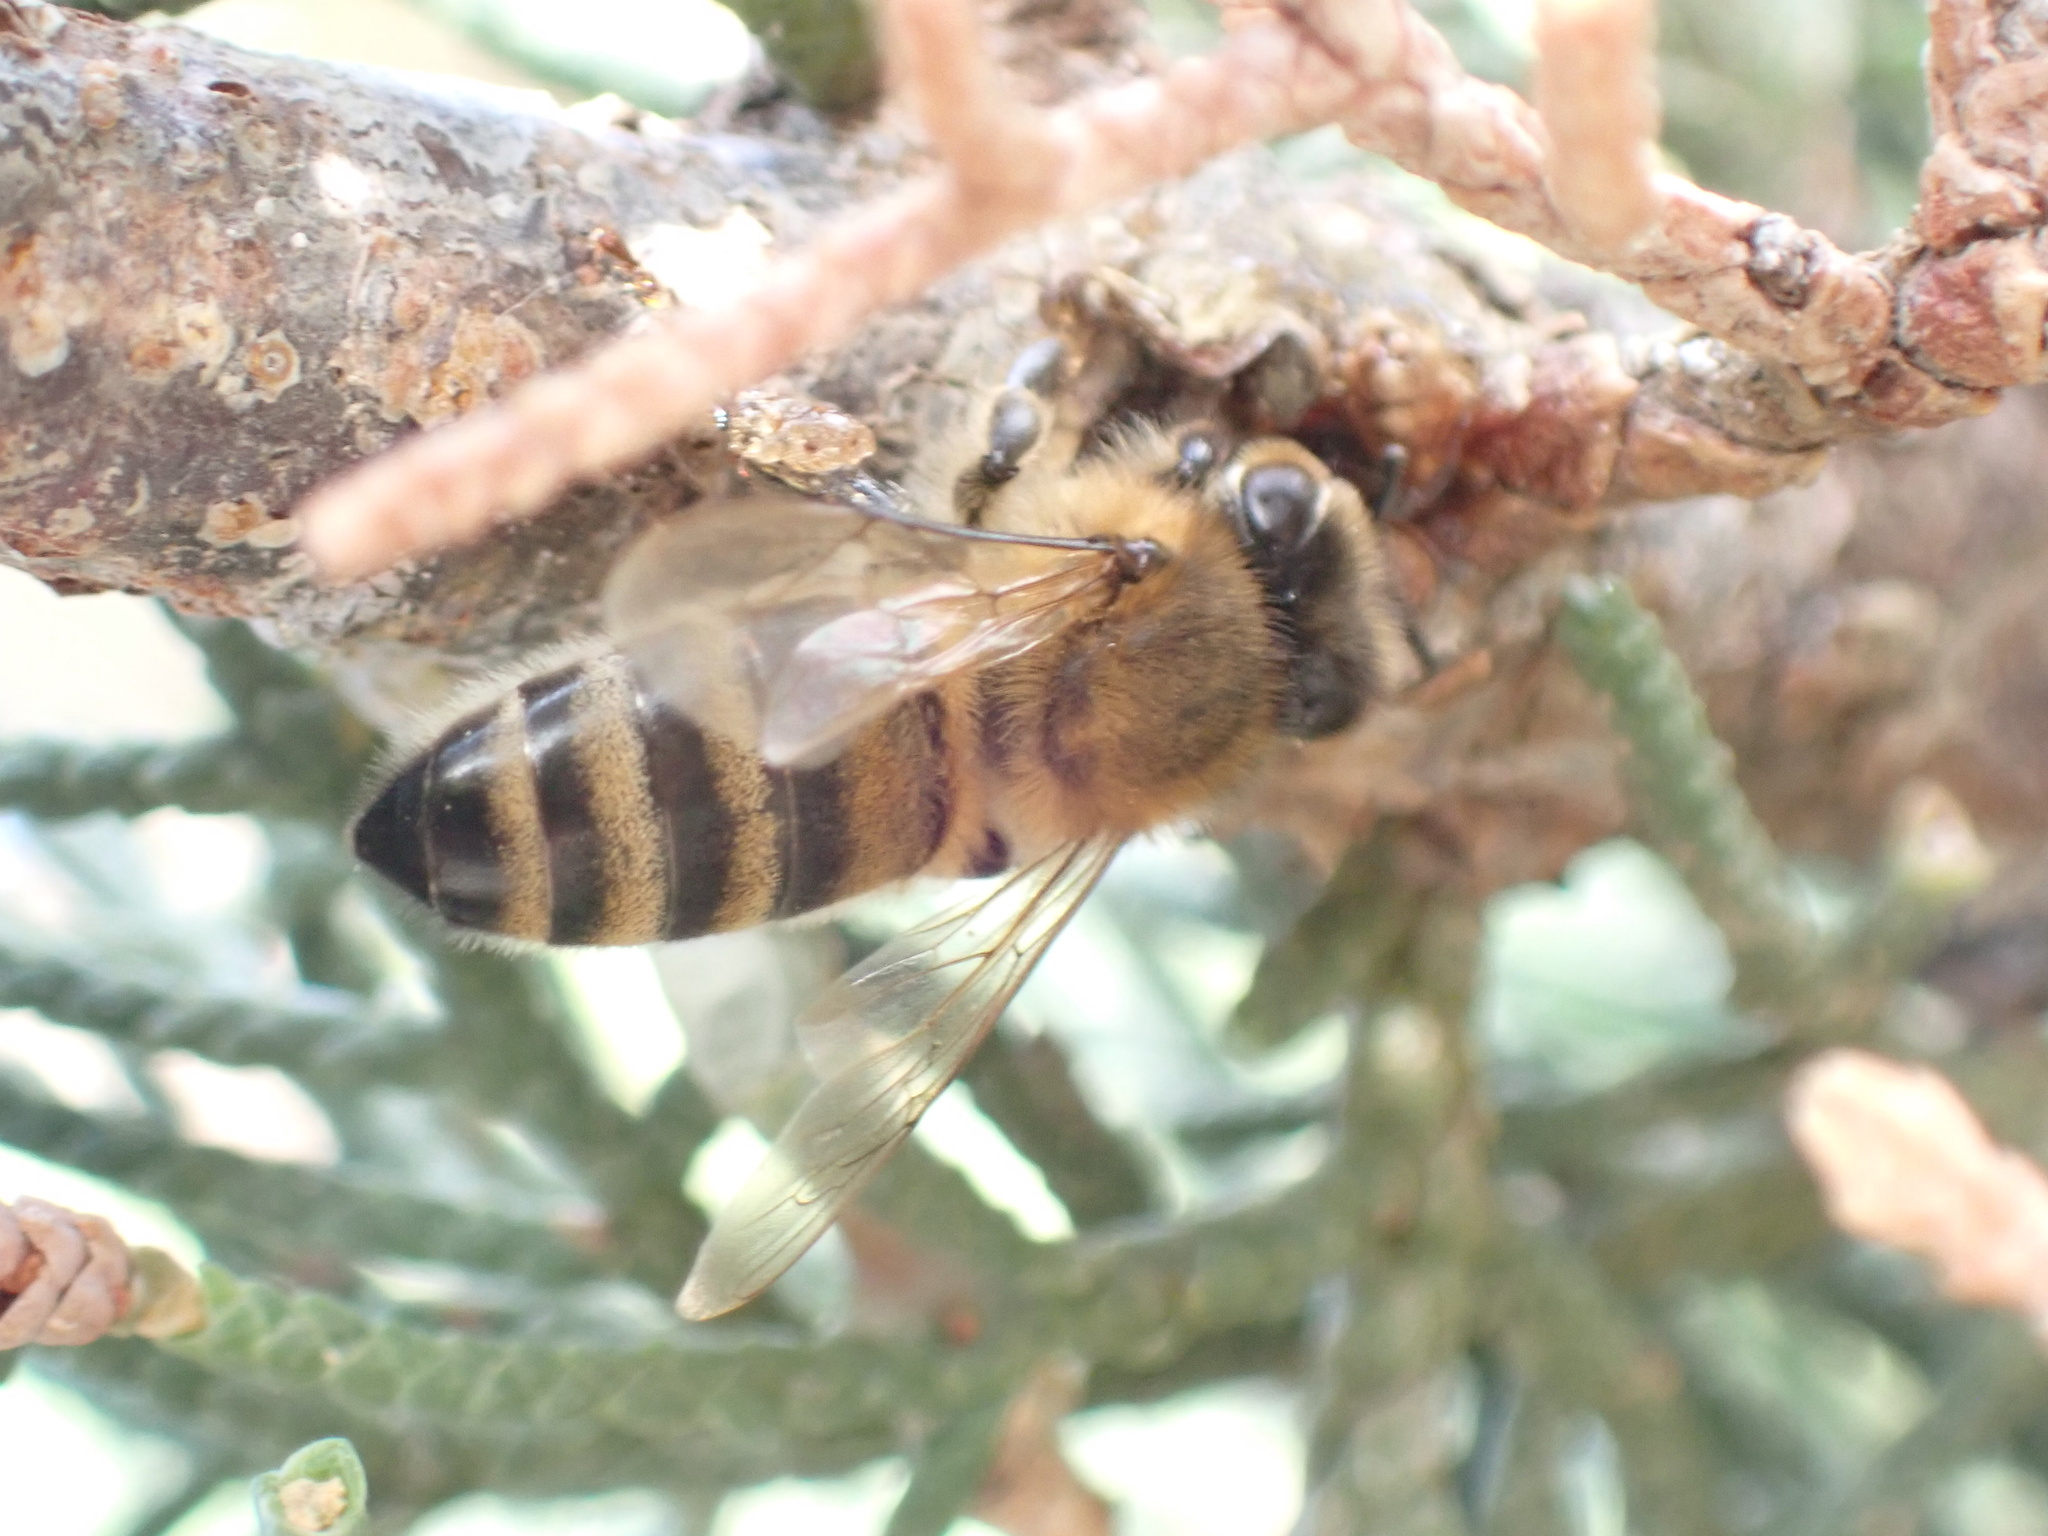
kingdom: Animalia
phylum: Arthropoda
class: Insecta
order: Hymenoptera
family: Apidae
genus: Apis
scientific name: Apis mellifera
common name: Honey bee
